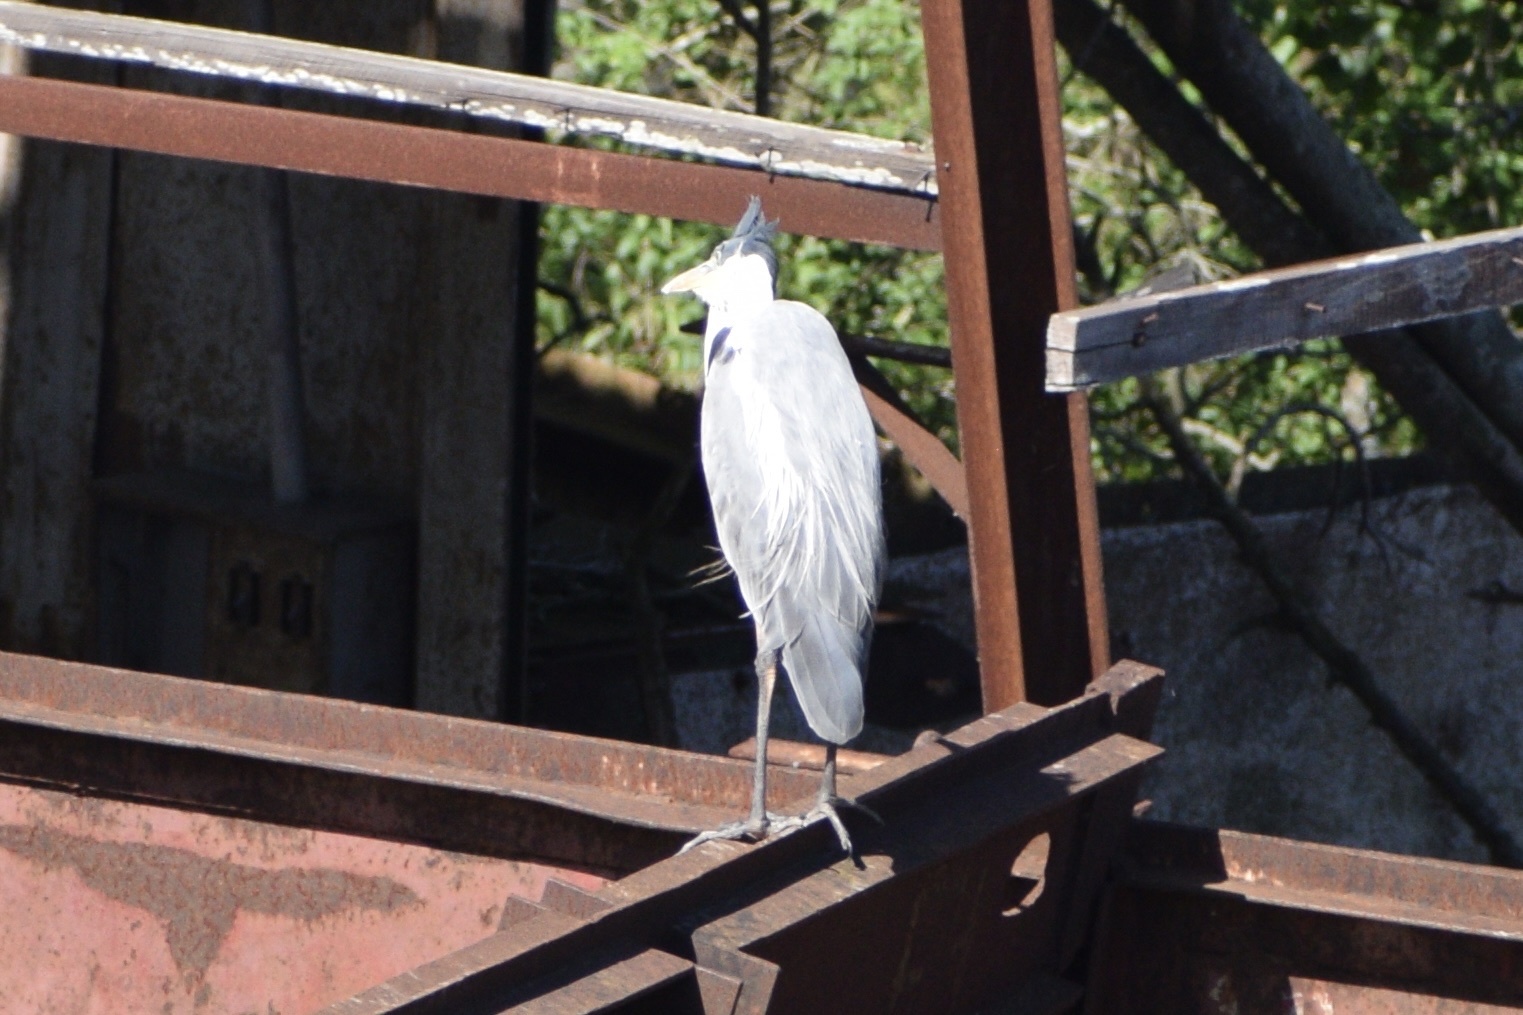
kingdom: Animalia
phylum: Chordata
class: Aves
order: Pelecaniformes
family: Ardeidae
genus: Ardea
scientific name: Ardea cocoi
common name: Cocoi heron
